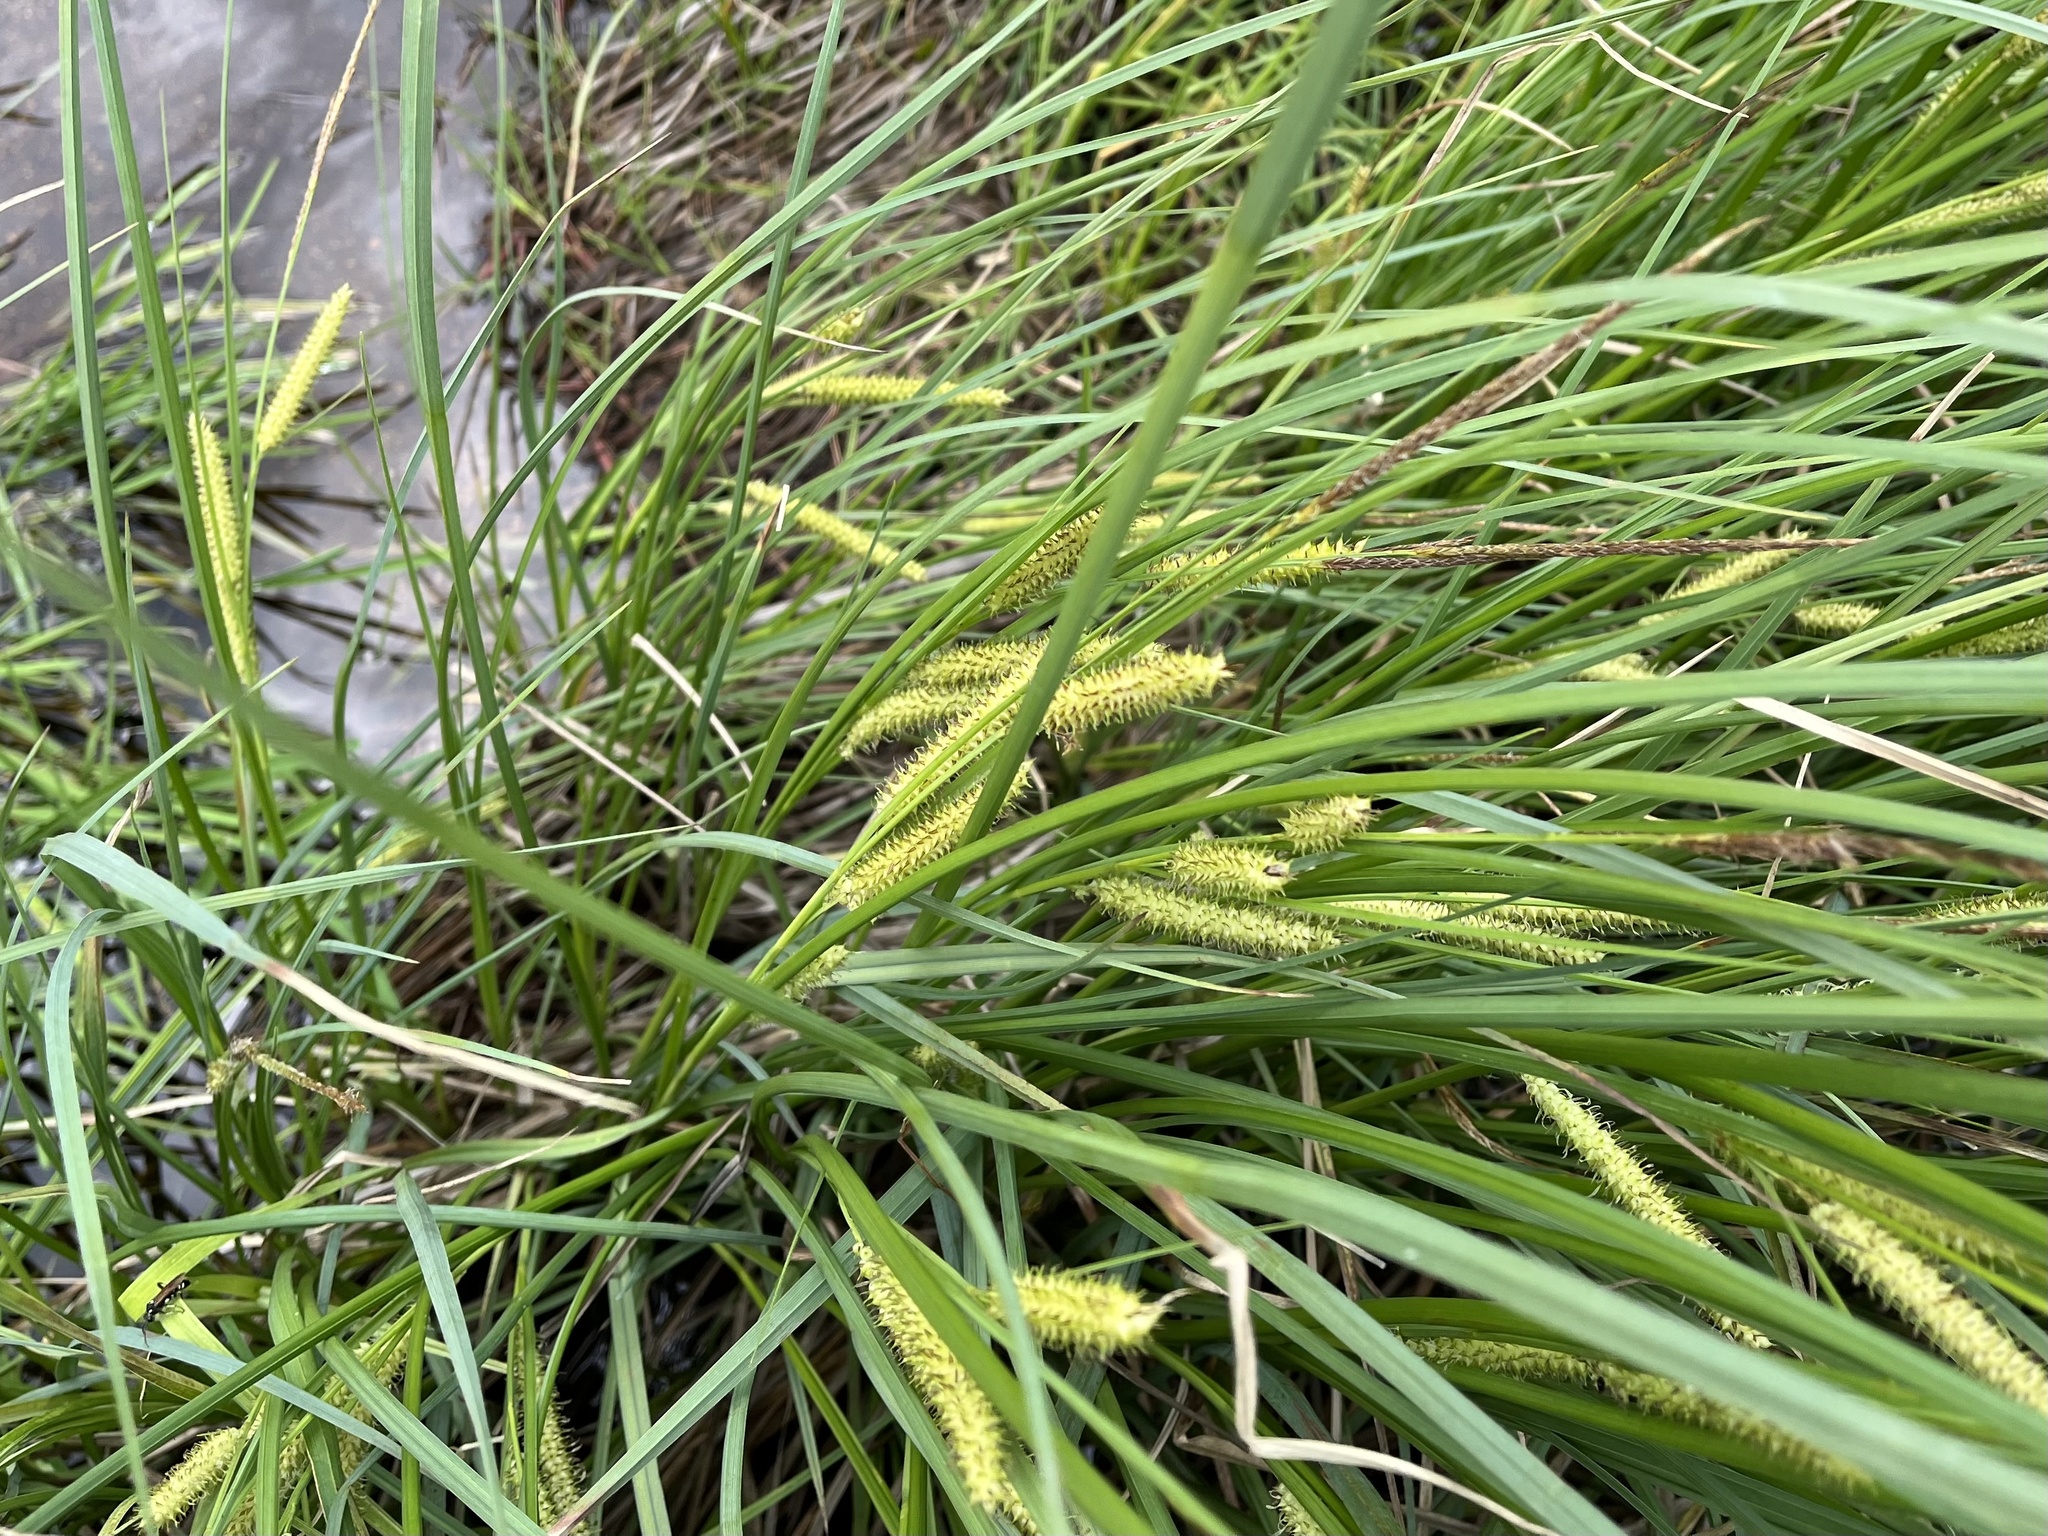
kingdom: Plantae
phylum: Tracheophyta
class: Liliopsida
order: Poales
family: Cyperaceae
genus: Carex
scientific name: Carex rostrata
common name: Bottle sedge
